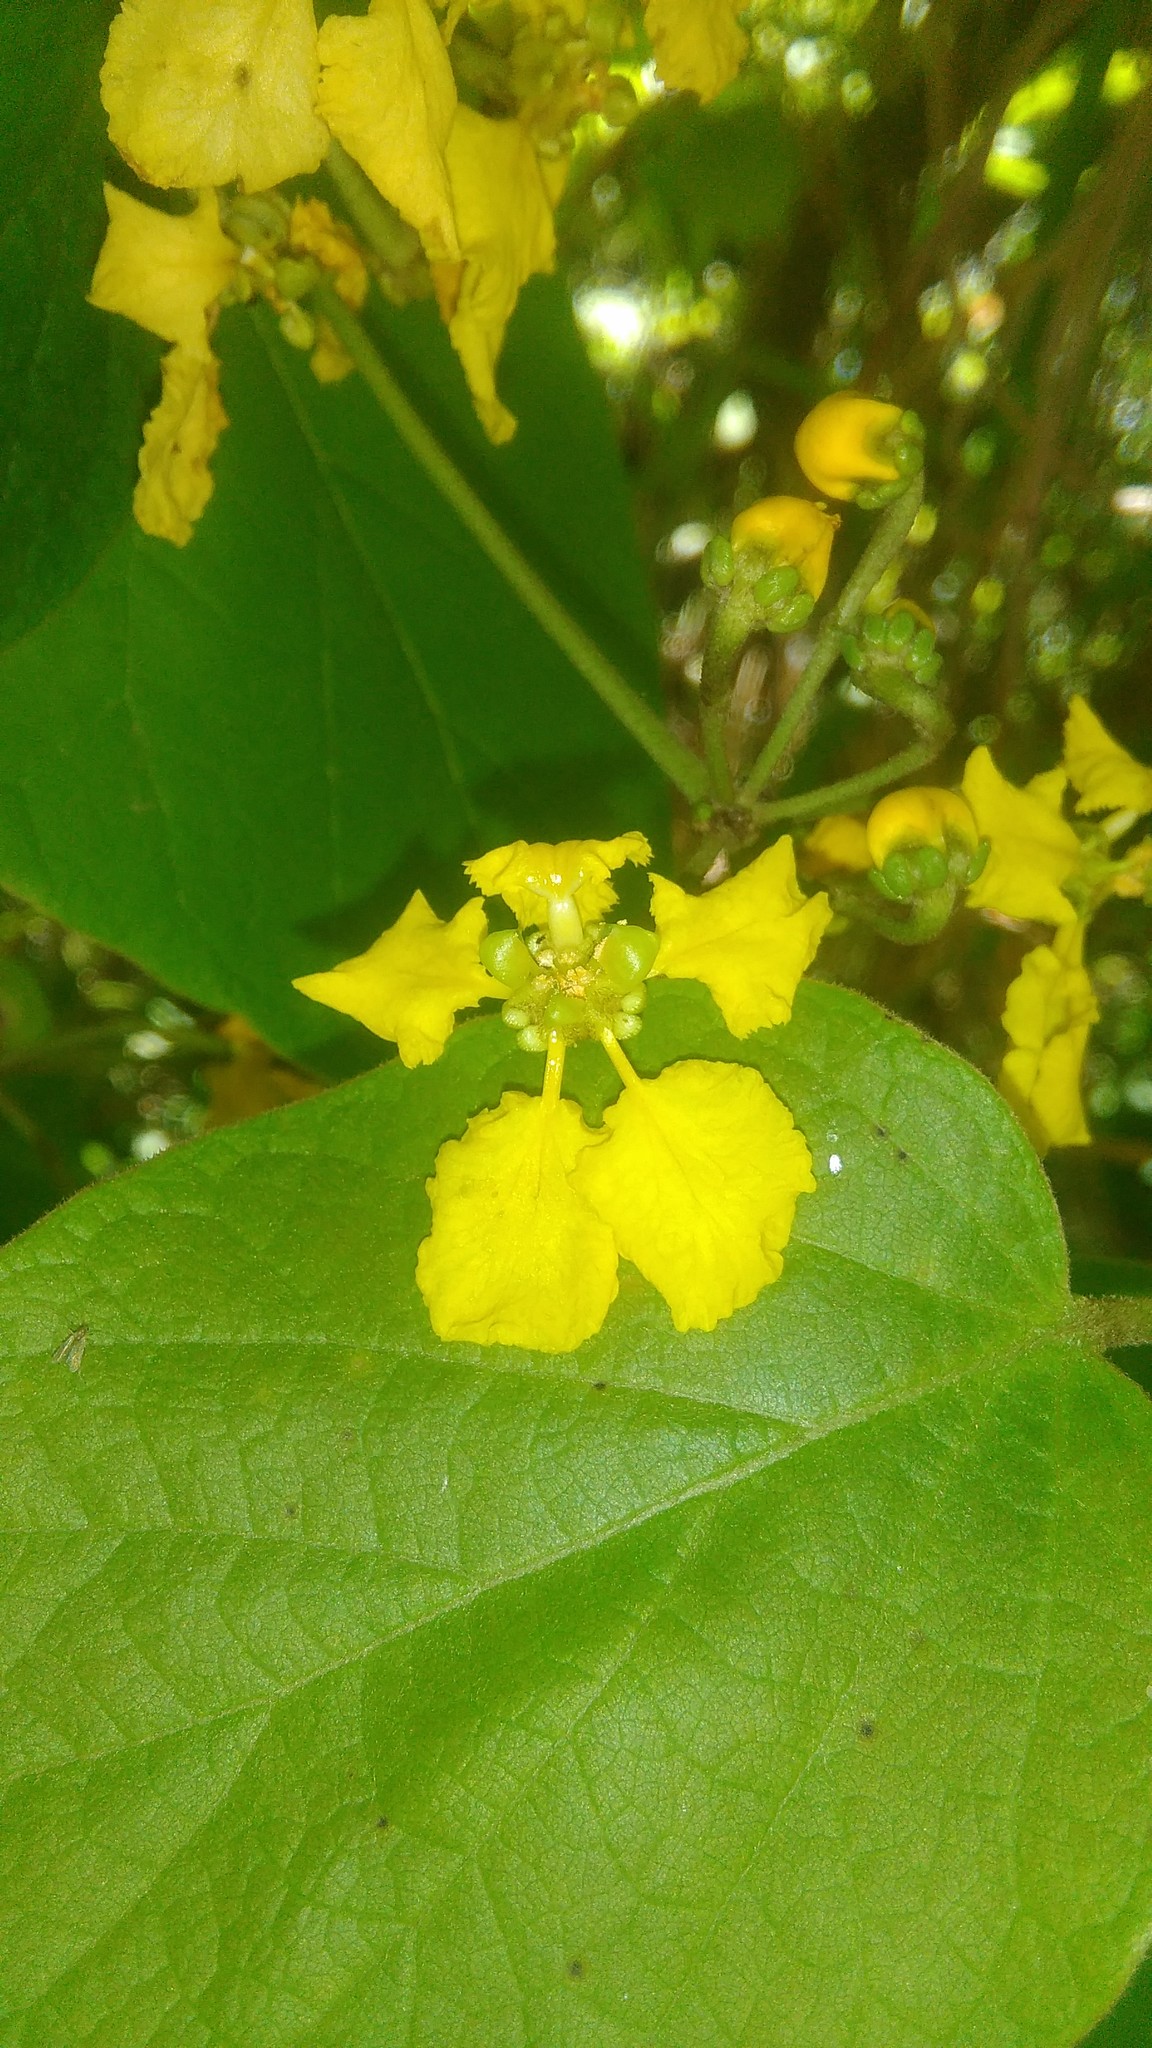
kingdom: Plantae
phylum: Tracheophyta
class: Magnoliopsida
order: Malpighiales
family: Malpighiaceae
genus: Stigmaphyllon
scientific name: Stigmaphyllon bonariense
